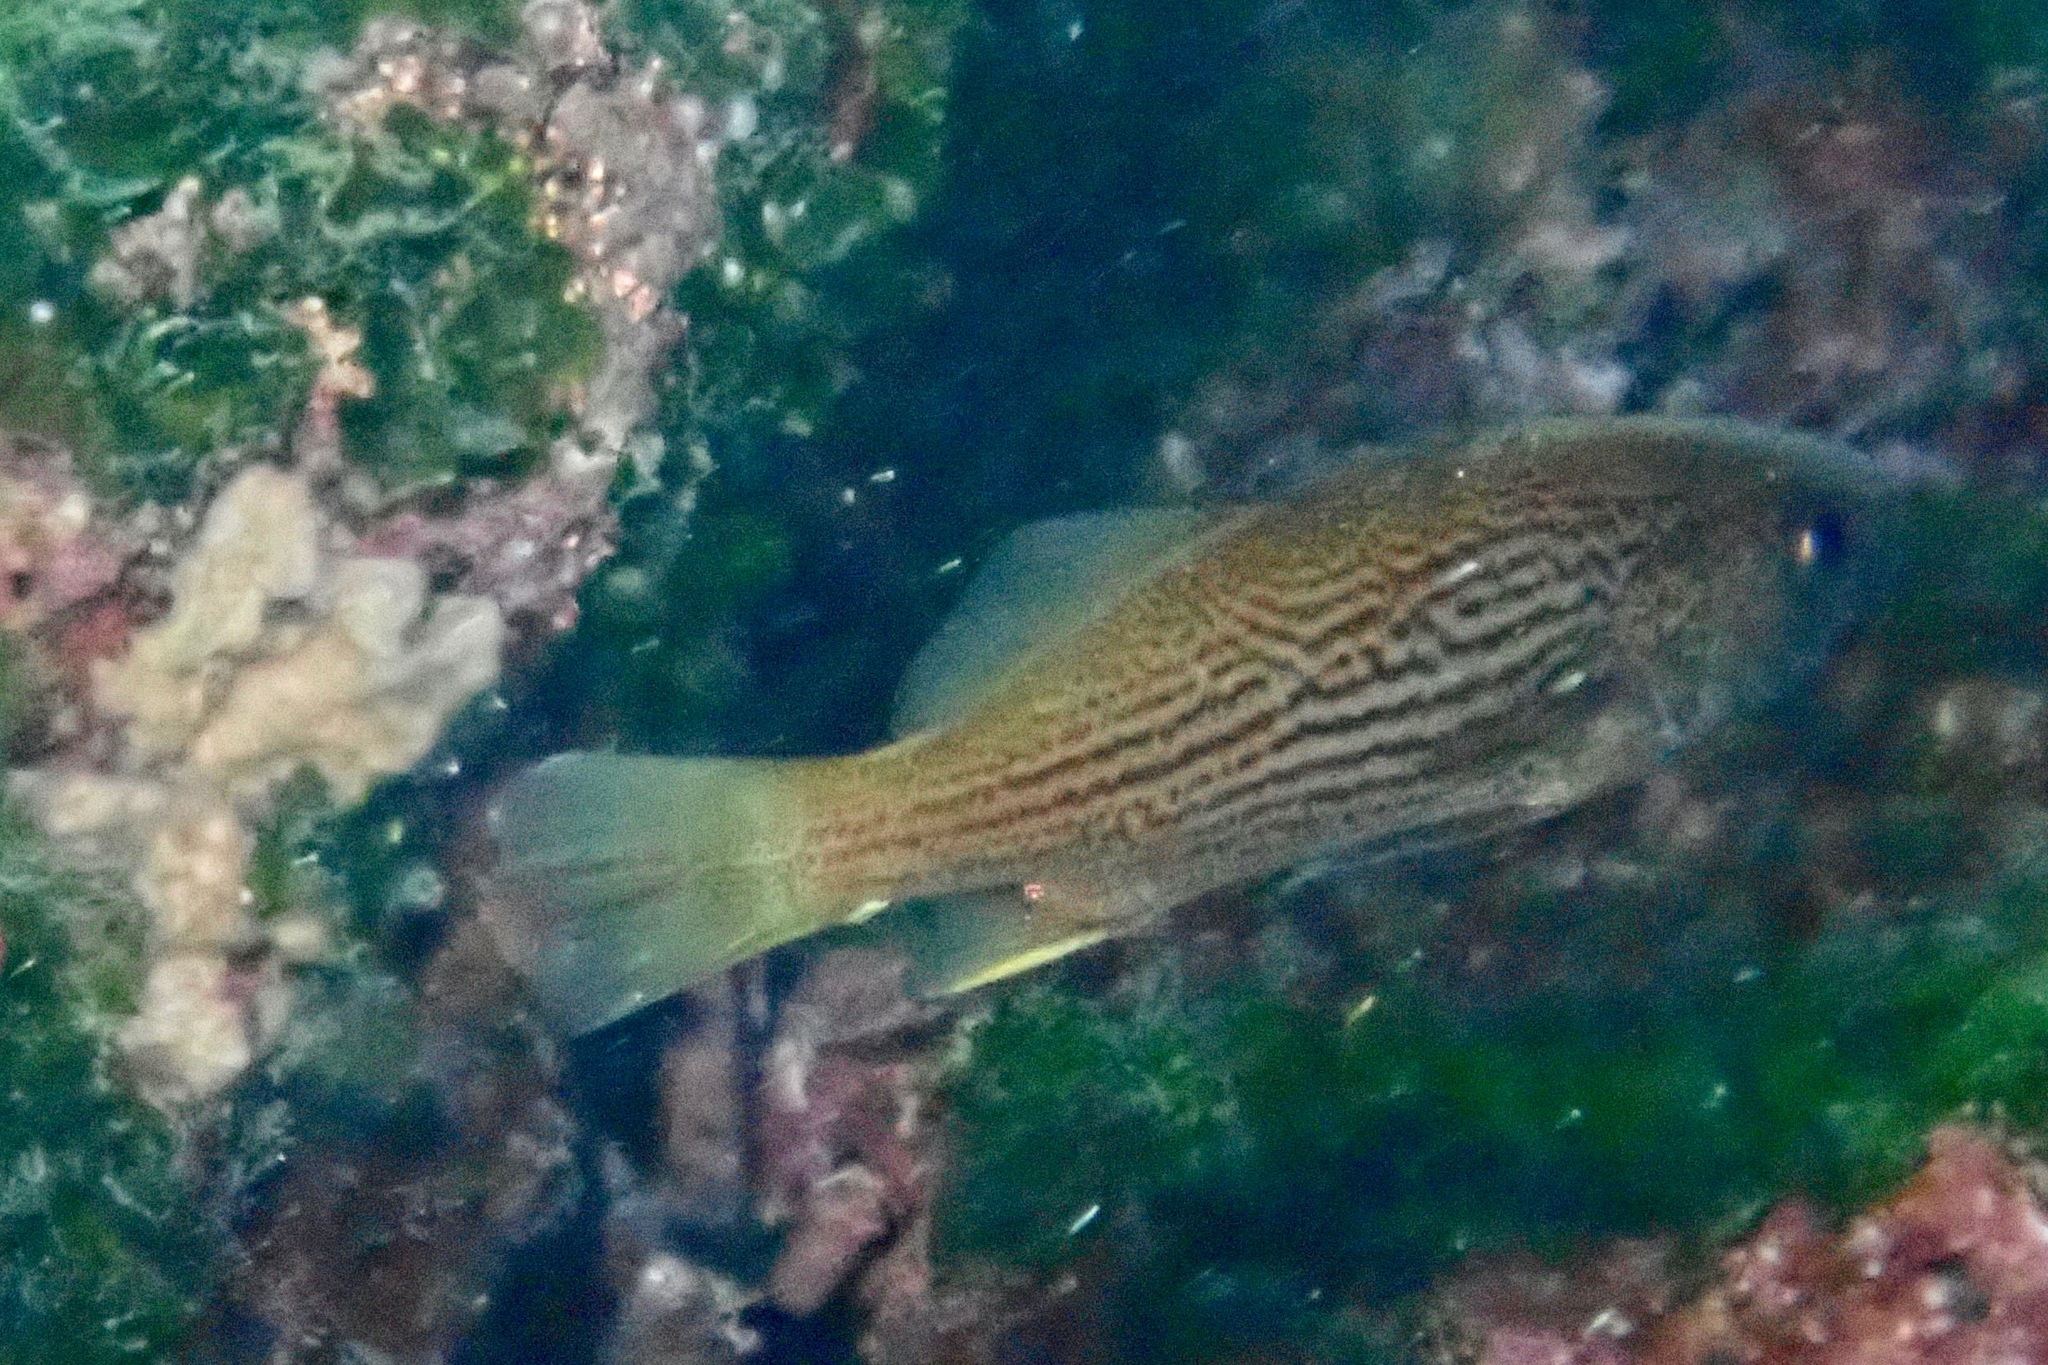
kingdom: Animalia
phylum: Chordata
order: Perciformes
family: Sciaenidae
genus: Odontoscion
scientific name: Odontoscion eurymesops
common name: Galapagos croaker
